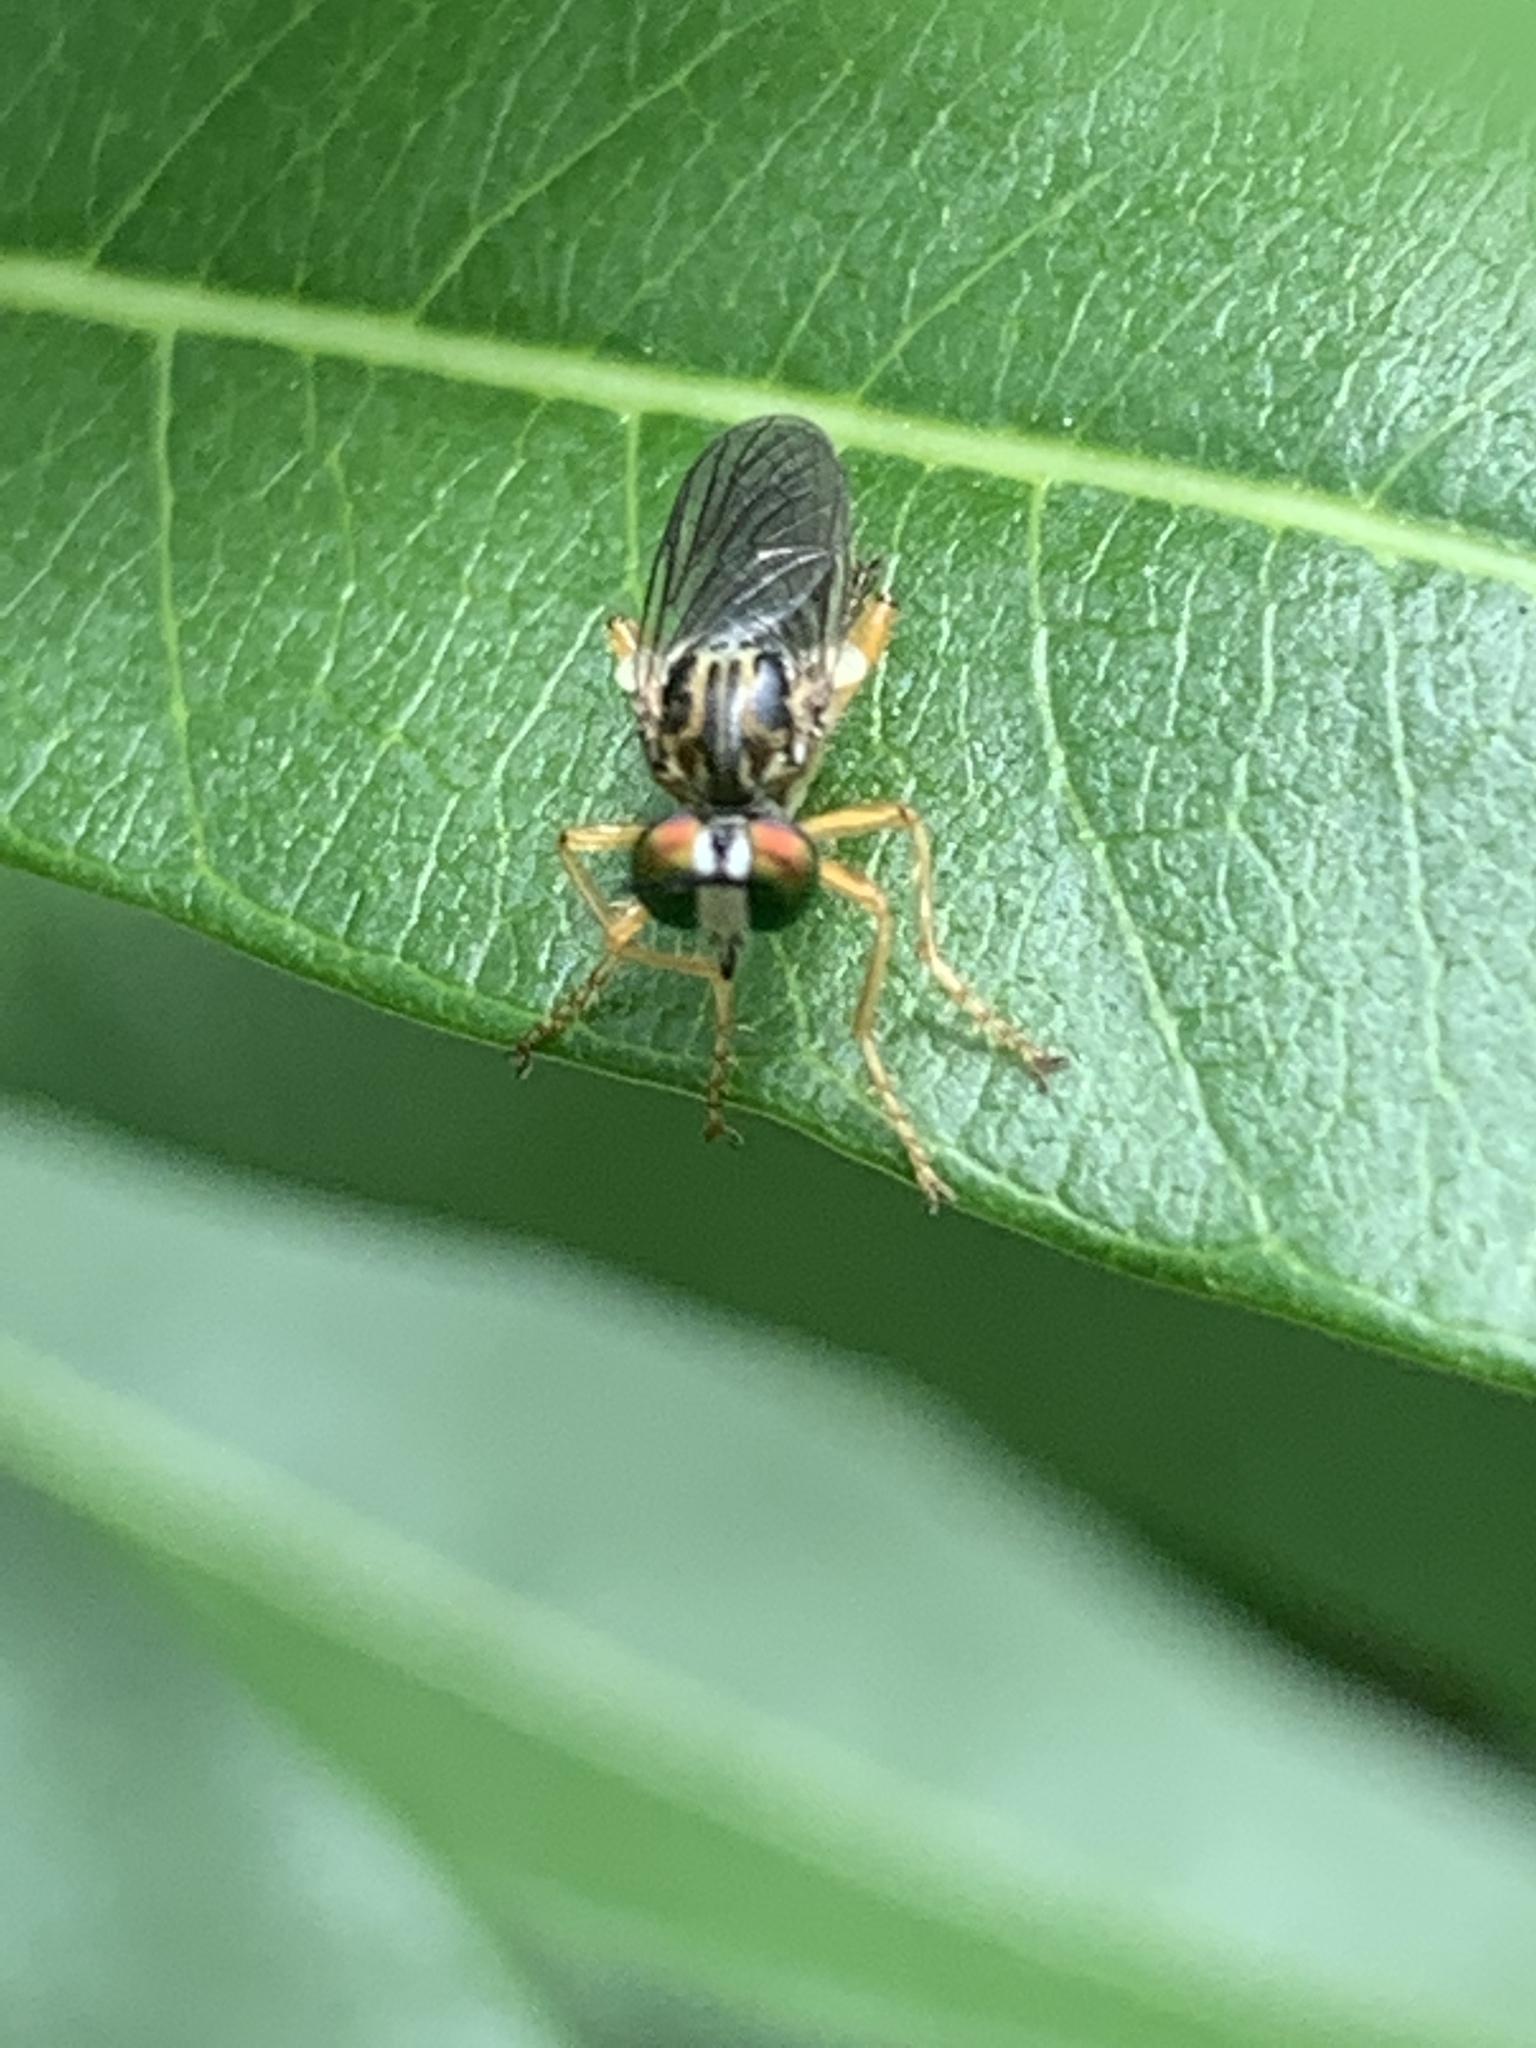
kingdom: Animalia
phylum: Arthropoda
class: Insecta
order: Diptera
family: Asilidae
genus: Taracticus
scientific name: Taracticus octopunctatus
